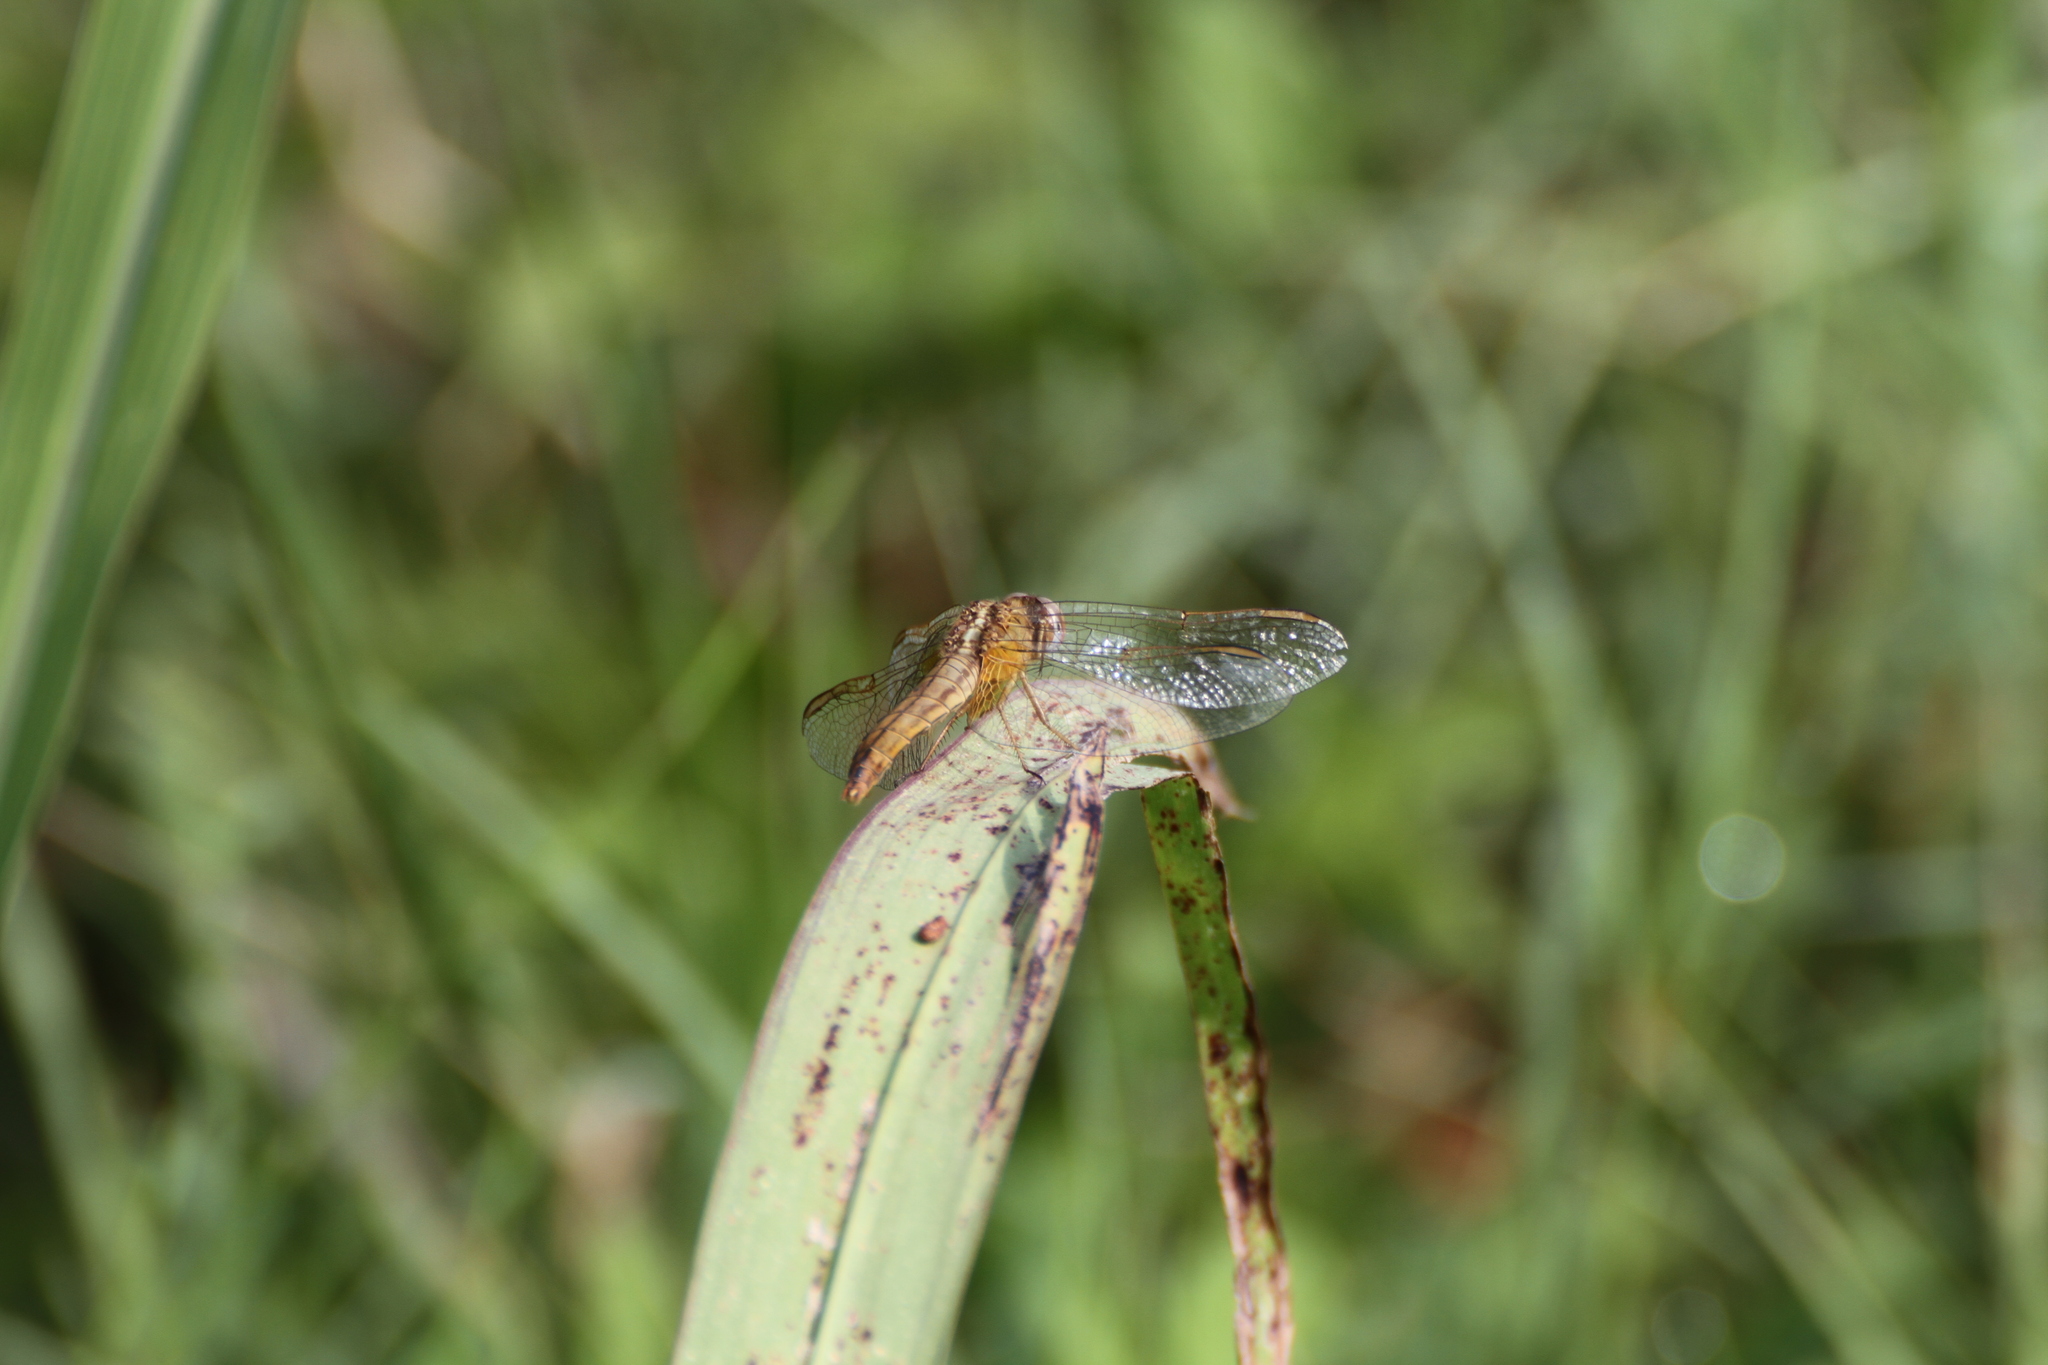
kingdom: Animalia
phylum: Arthropoda
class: Insecta
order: Odonata
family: Libellulidae
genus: Crocothemis
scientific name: Crocothemis erythraea
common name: Scarlet dragonfly
